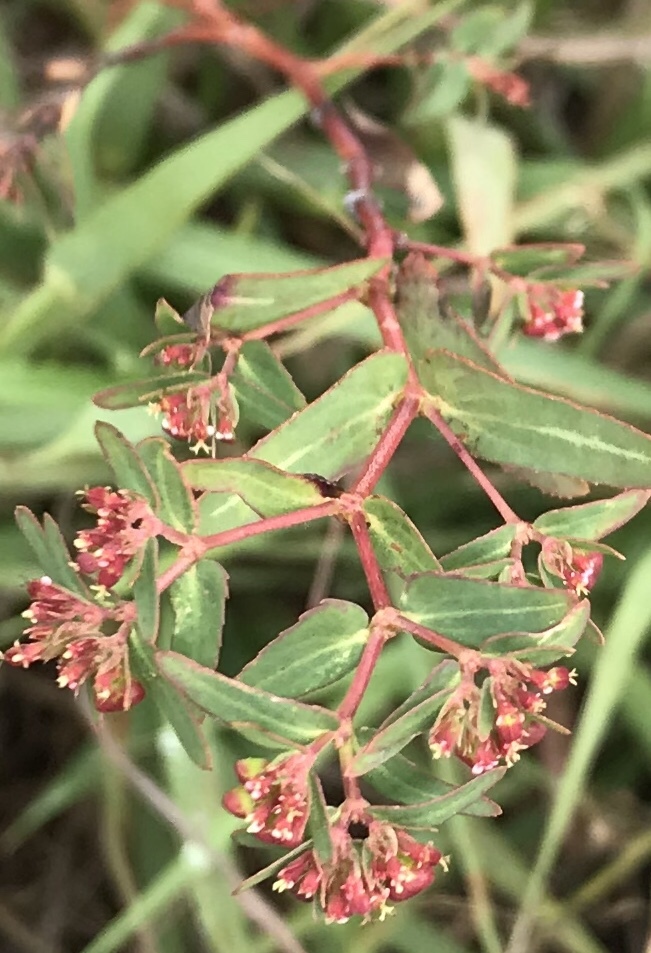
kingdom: Plantae
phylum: Tracheophyta
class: Magnoliopsida
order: Malpighiales
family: Euphorbiaceae
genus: Euphorbia
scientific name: Euphorbia nutans
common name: Eyebane
